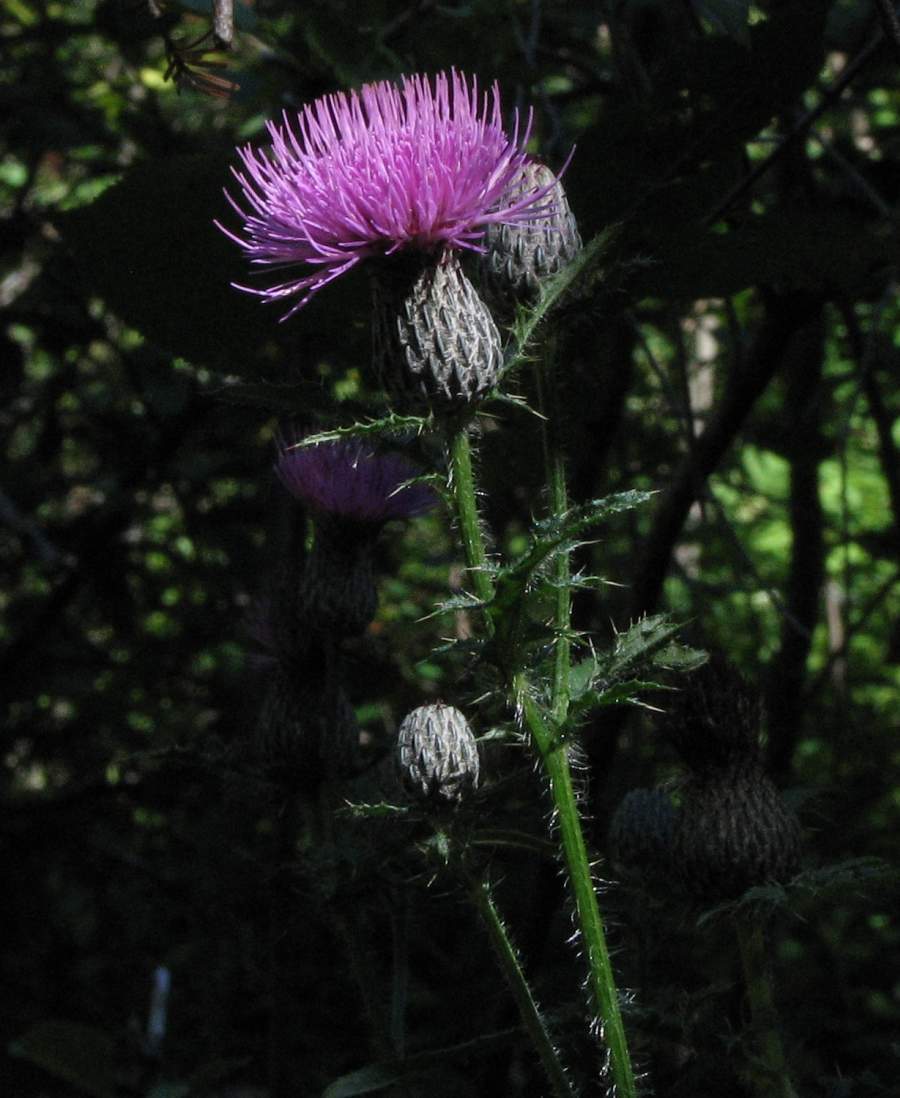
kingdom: Plantae
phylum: Tracheophyta
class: Magnoliopsida
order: Asterales
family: Asteraceae
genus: Cirsium
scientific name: Cirsium muticum
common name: Dunce-nettle
